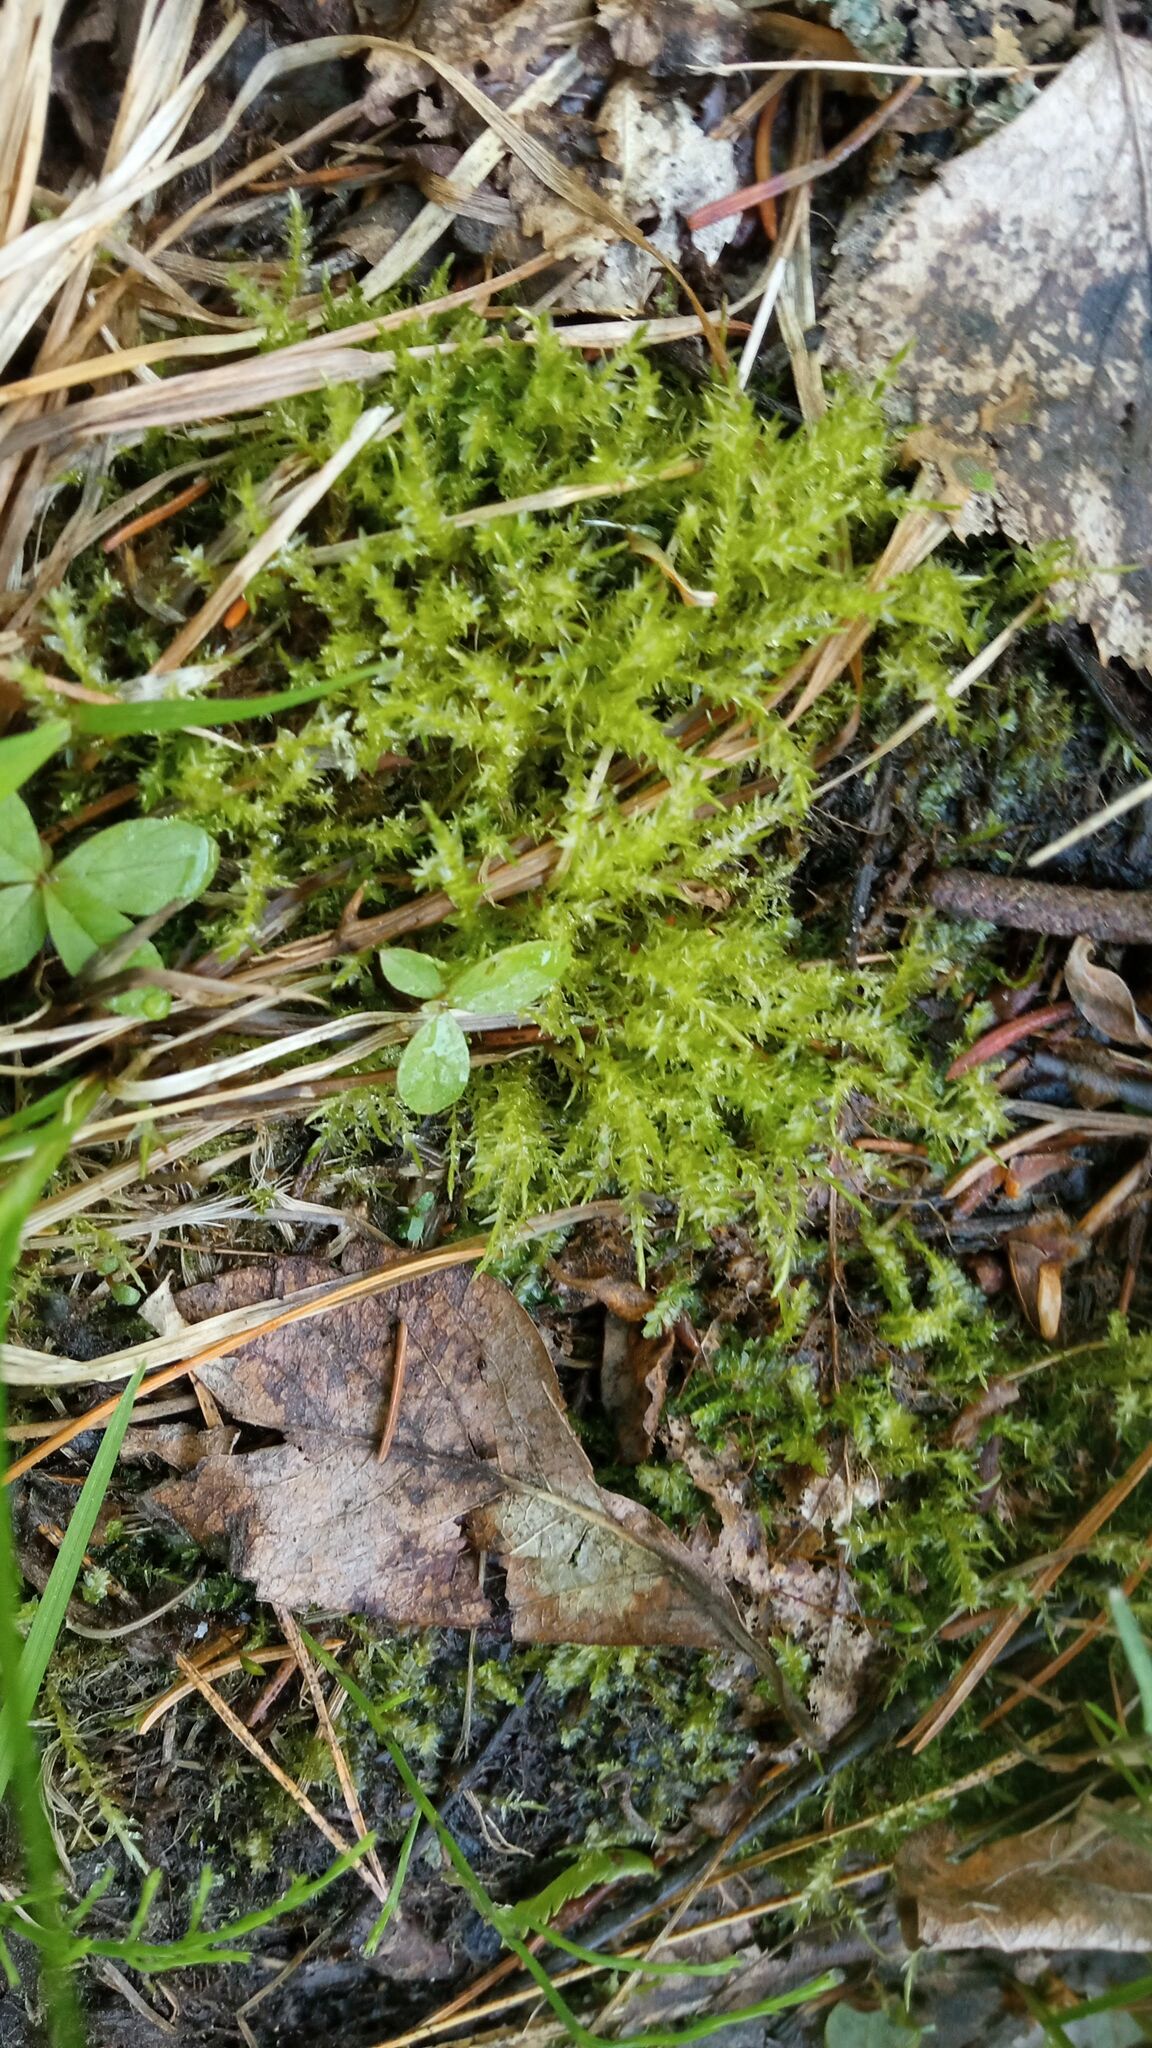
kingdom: Plantae
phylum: Bryophyta
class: Bryopsida
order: Aulacomniales
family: Aulacomniaceae
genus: Aulacomnium
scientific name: Aulacomnium palustre
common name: Bog groove-moss
